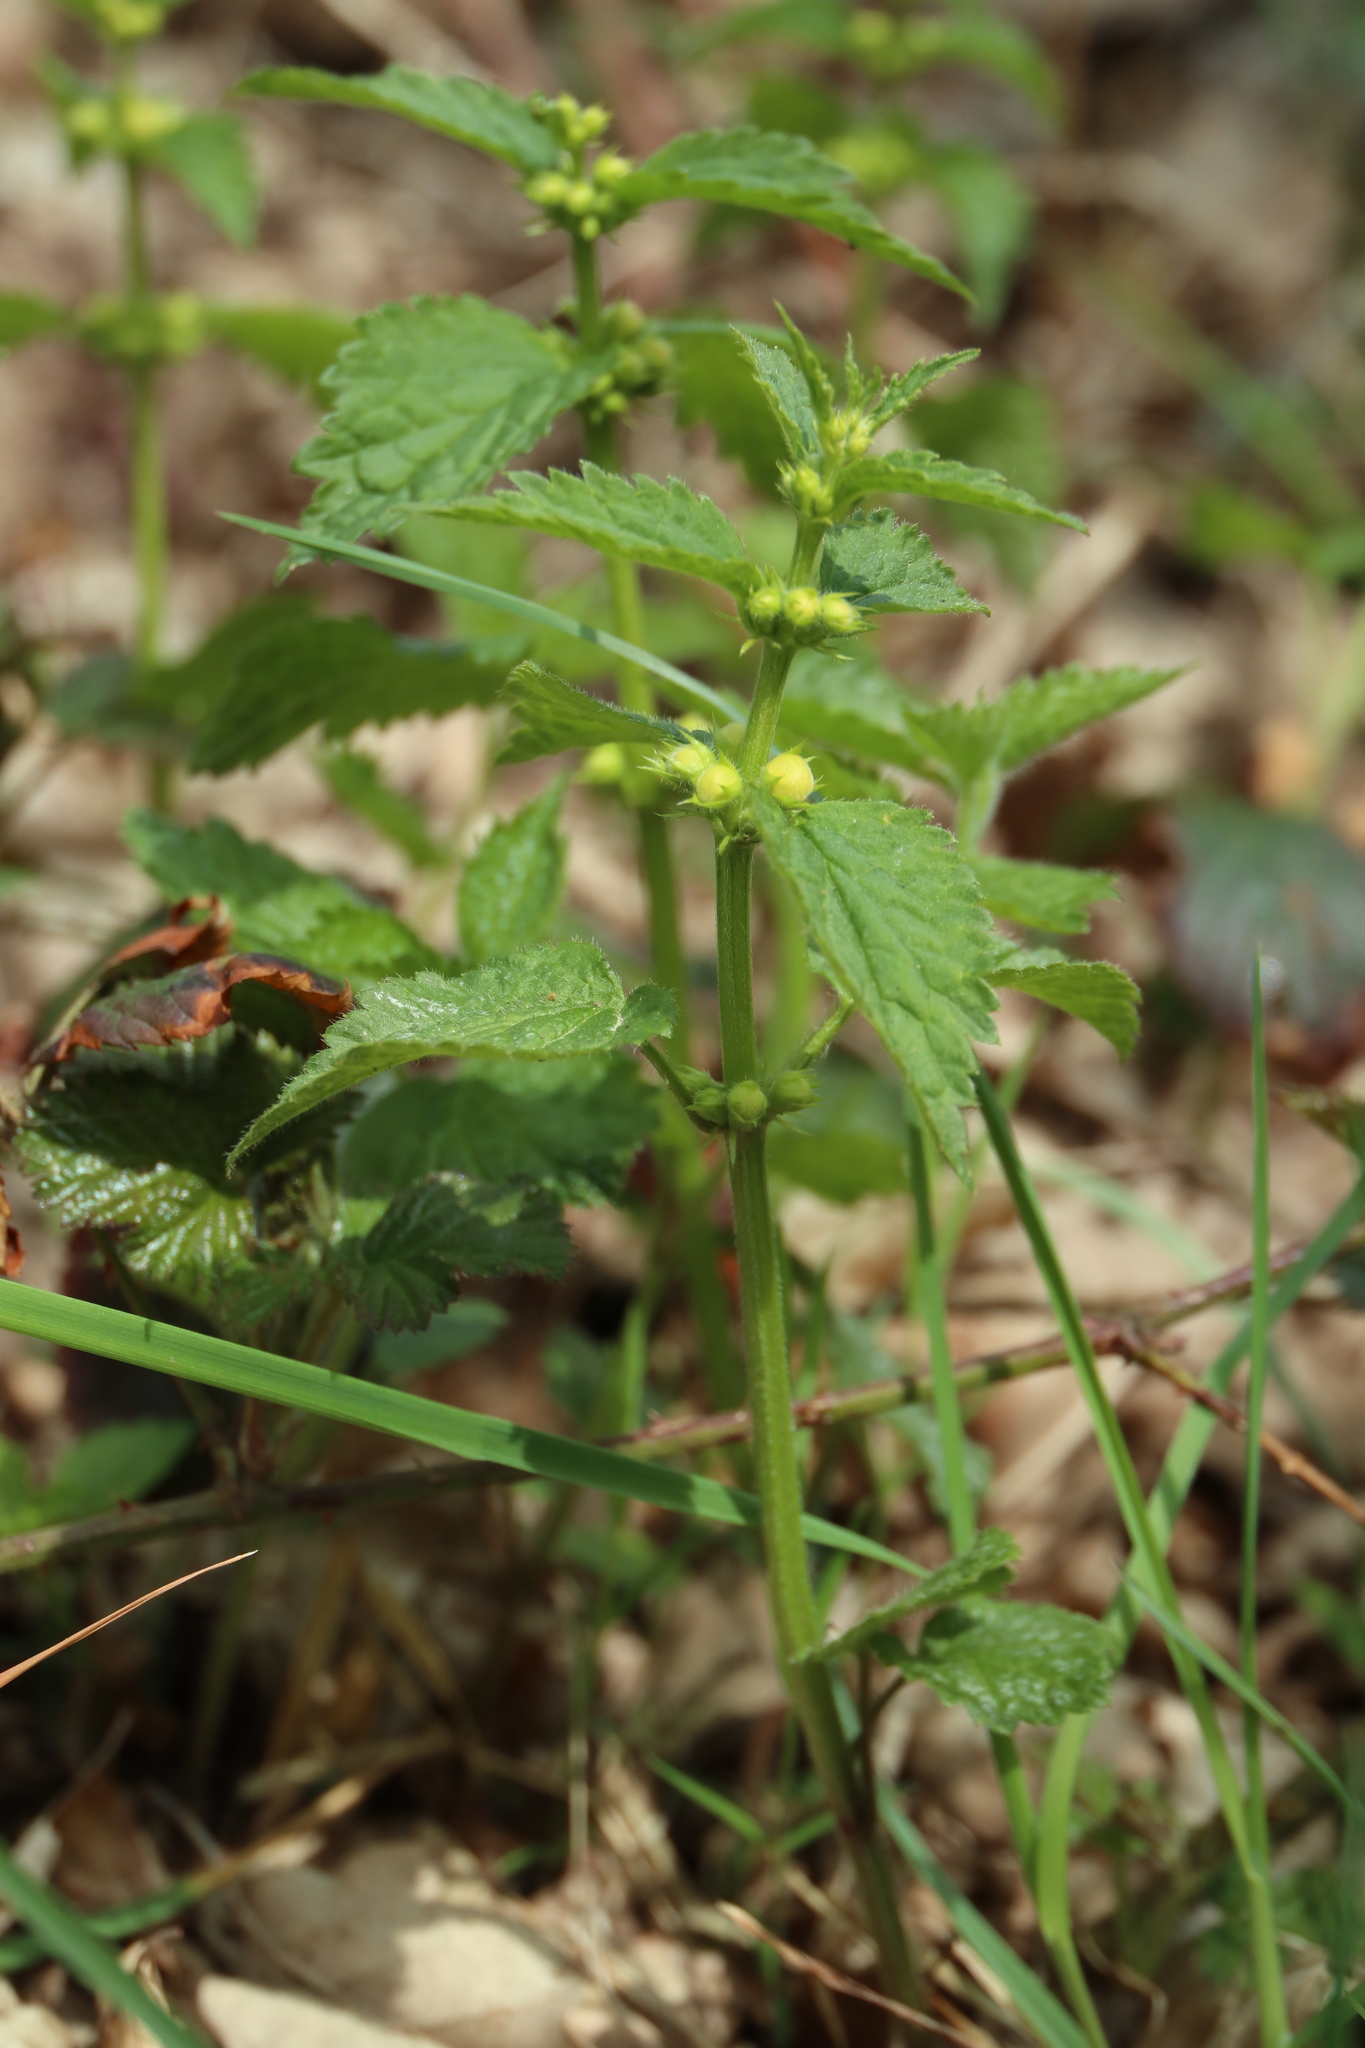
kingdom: Plantae
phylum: Tracheophyta
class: Magnoliopsida
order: Lamiales
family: Lamiaceae
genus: Lamium
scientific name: Lamium galeobdolon
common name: Yellow archangel
